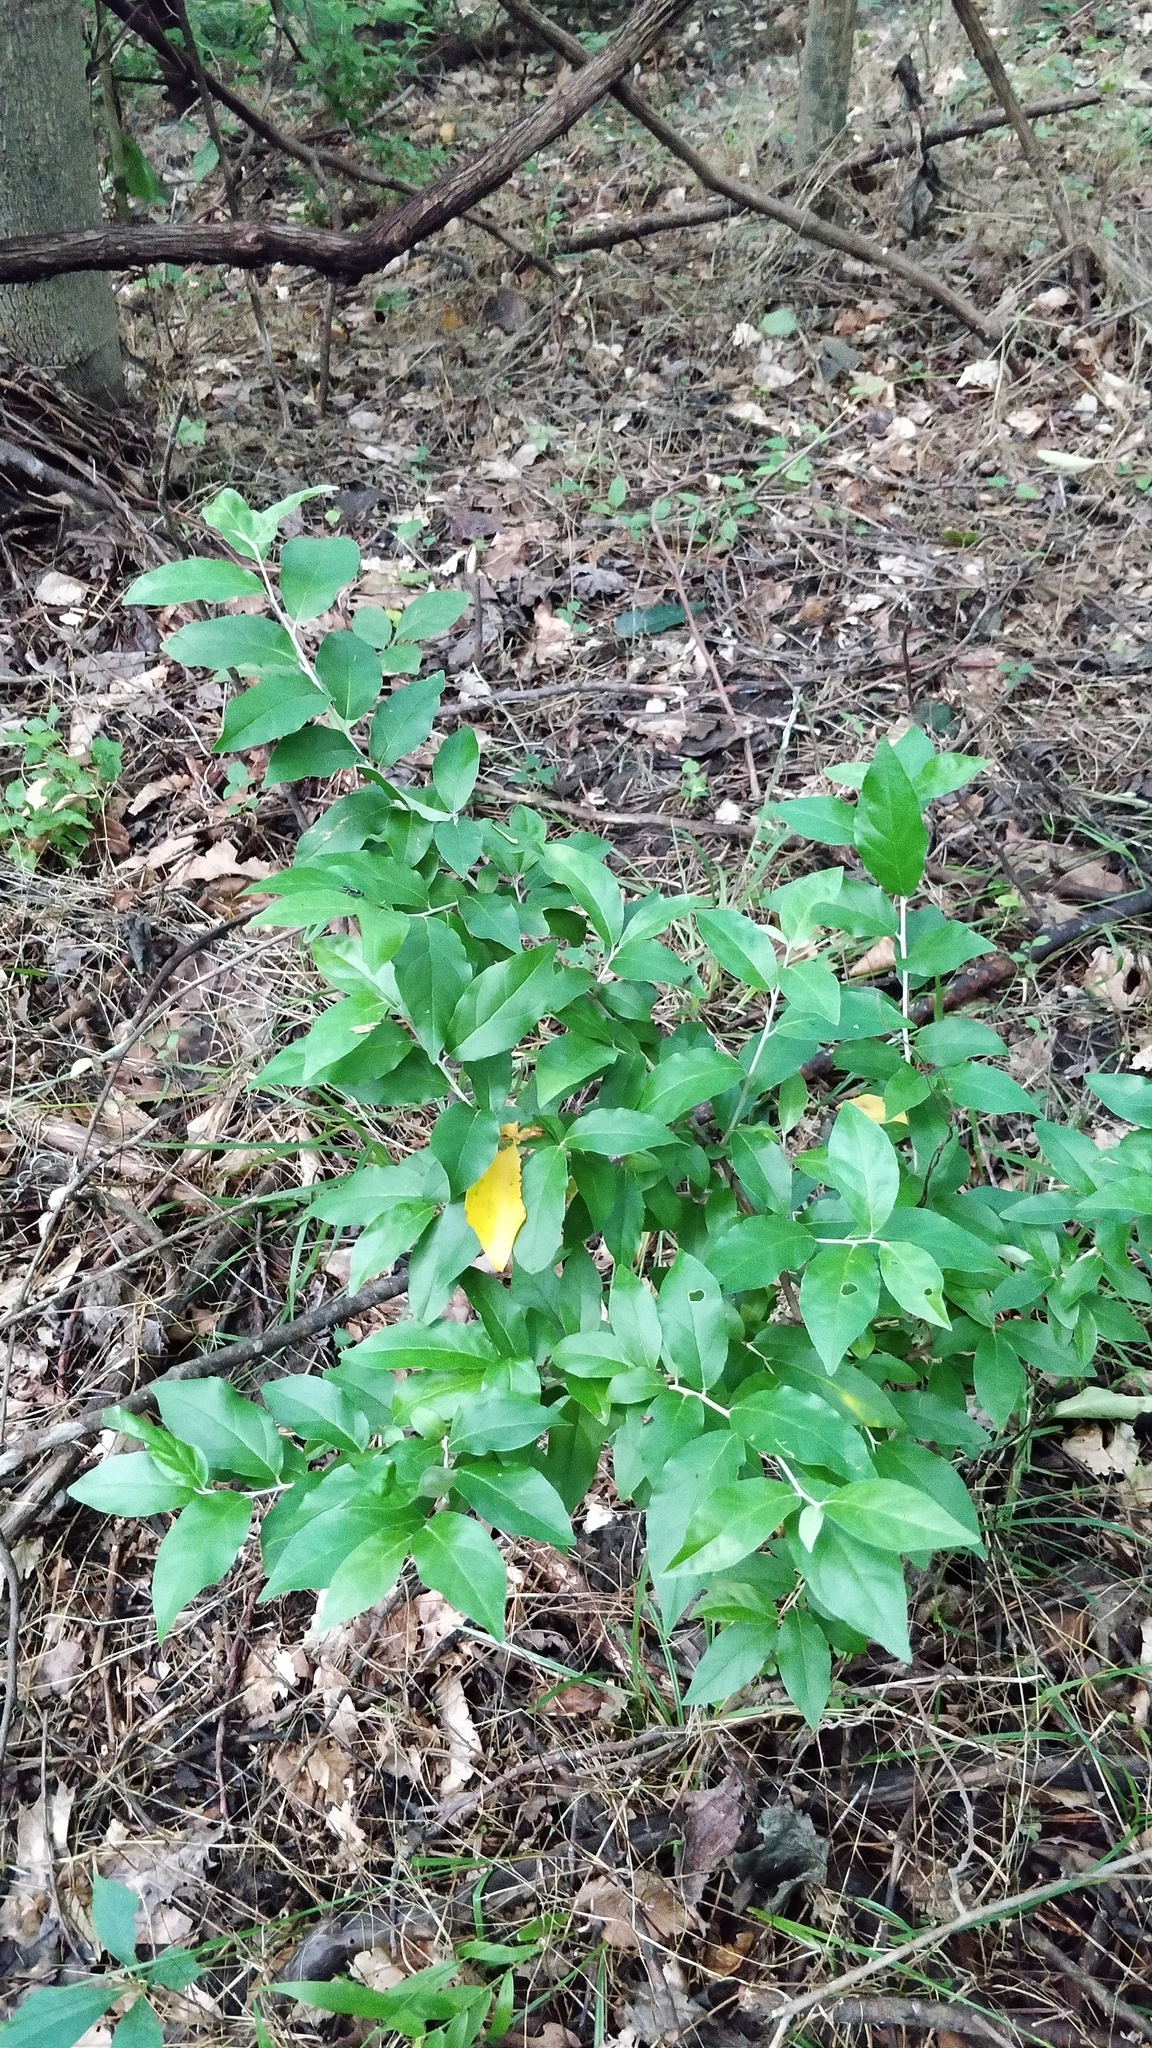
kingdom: Plantae
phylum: Tracheophyta
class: Magnoliopsida
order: Rosales
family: Elaeagnaceae
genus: Elaeagnus
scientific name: Elaeagnus umbellata
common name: Autumn olive
